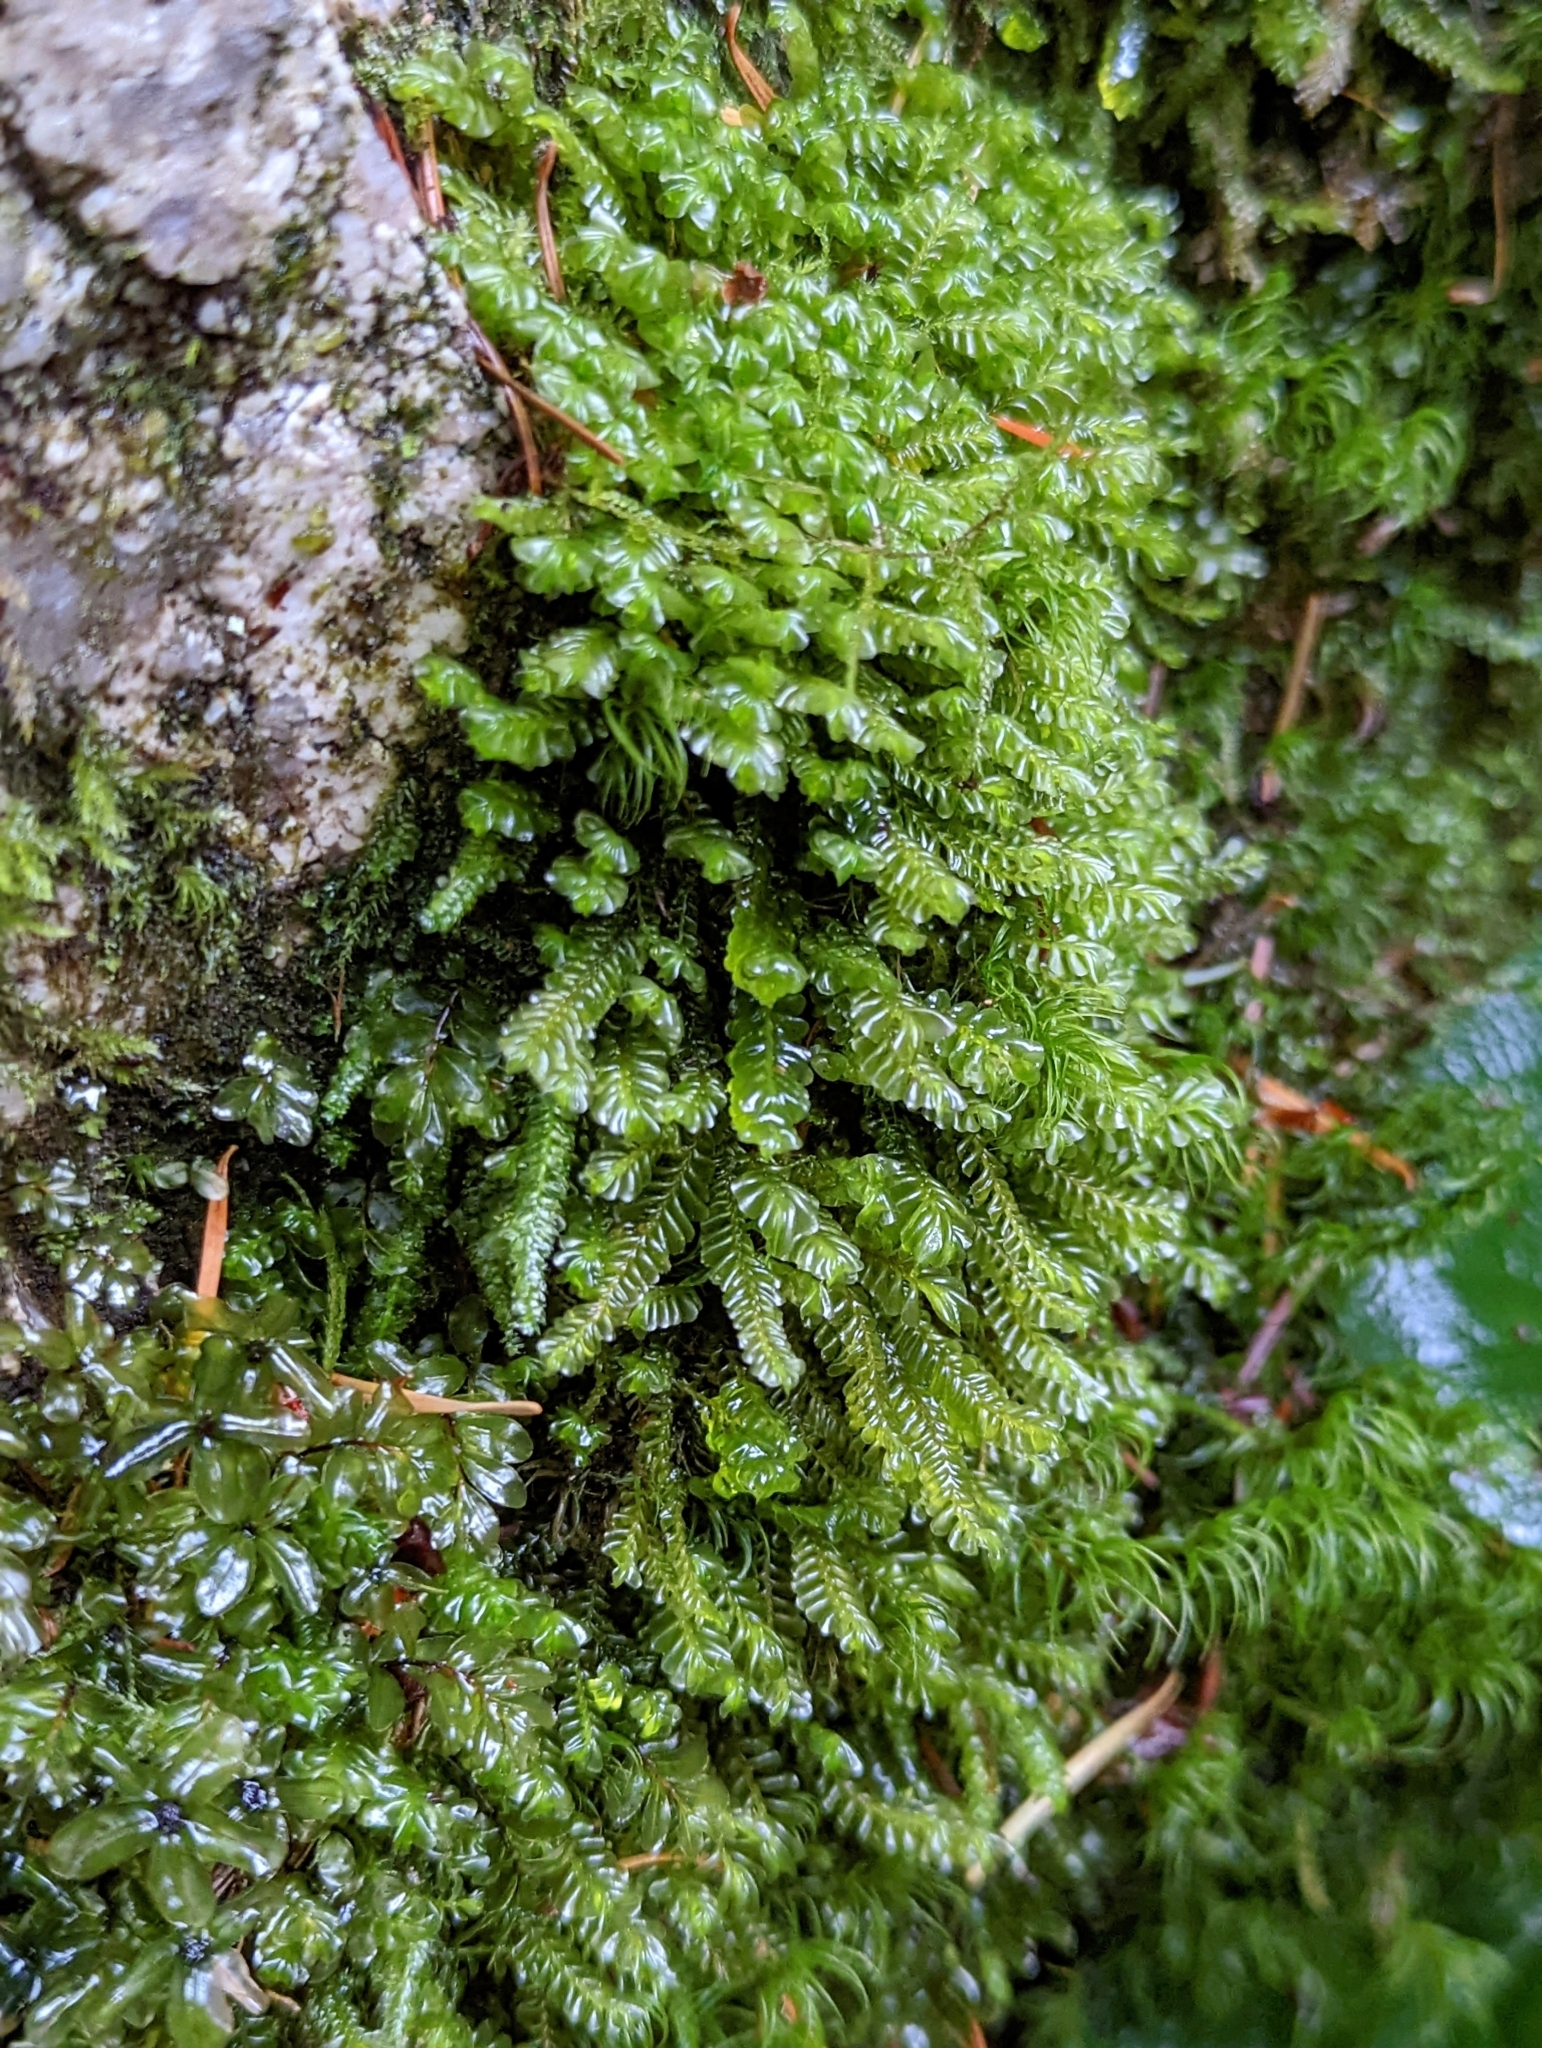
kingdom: Plantae
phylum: Marchantiophyta
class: Jungermanniopsida
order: Jungermanniales
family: Plagiochilaceae
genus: Plagiochila
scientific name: Plagiochila porelloides
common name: Lesser featherwort
